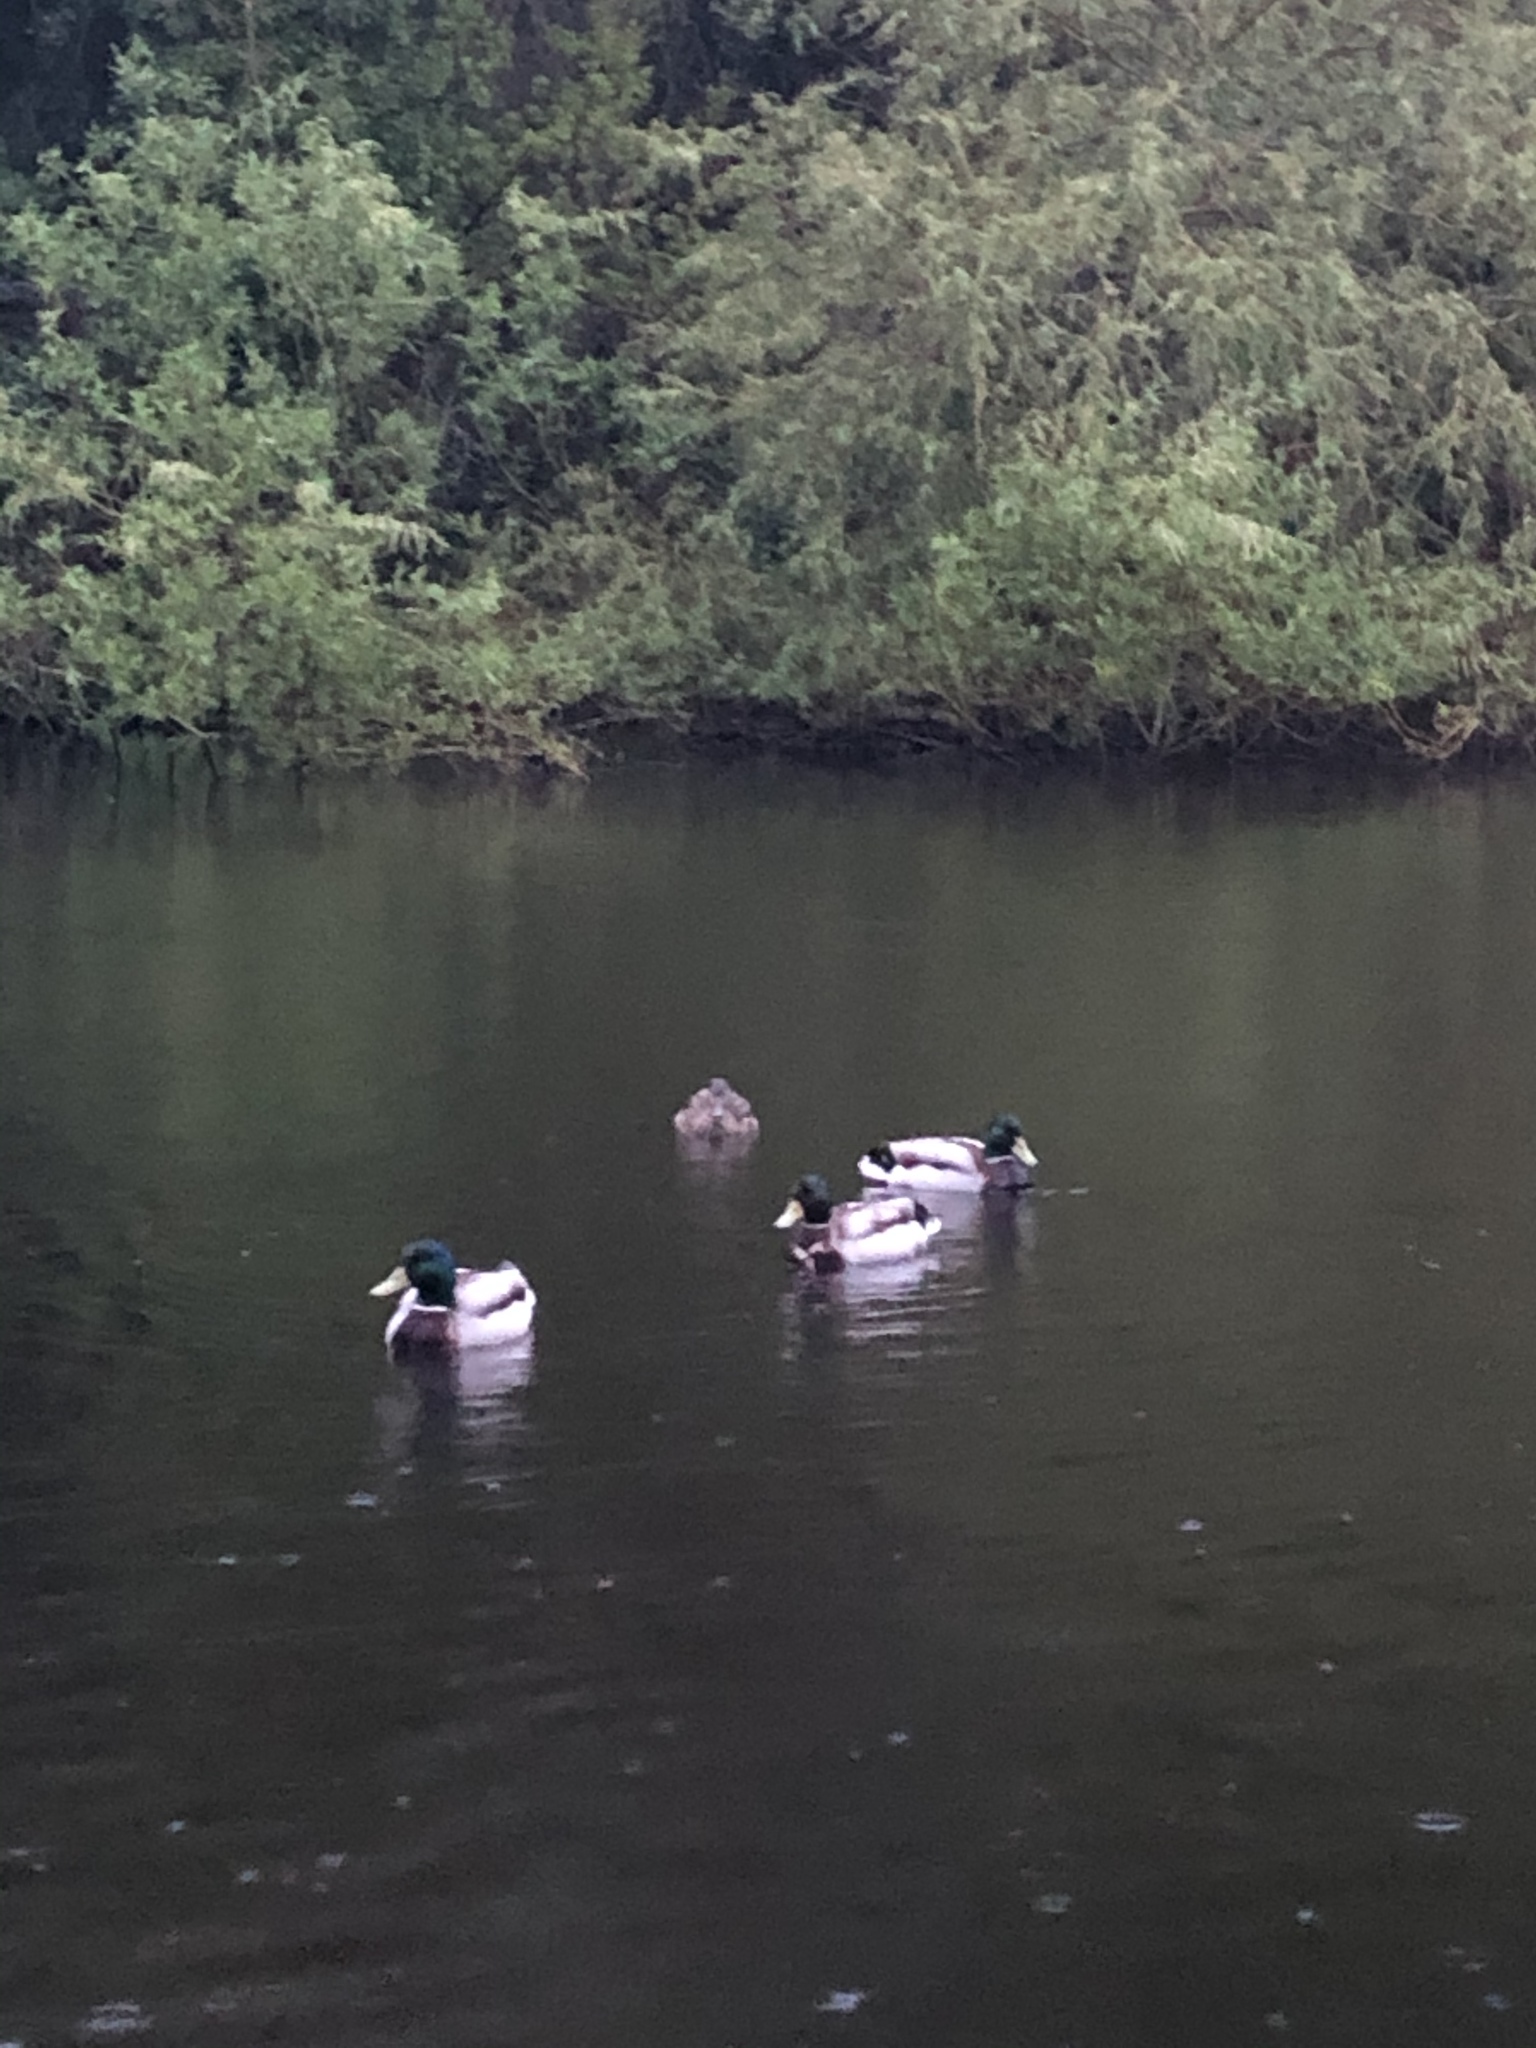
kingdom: Animalia
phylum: Chordata
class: Aves
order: Anseriformes
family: Anatidae
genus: Anas
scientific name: Anas platyrhynchos
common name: Mallard
